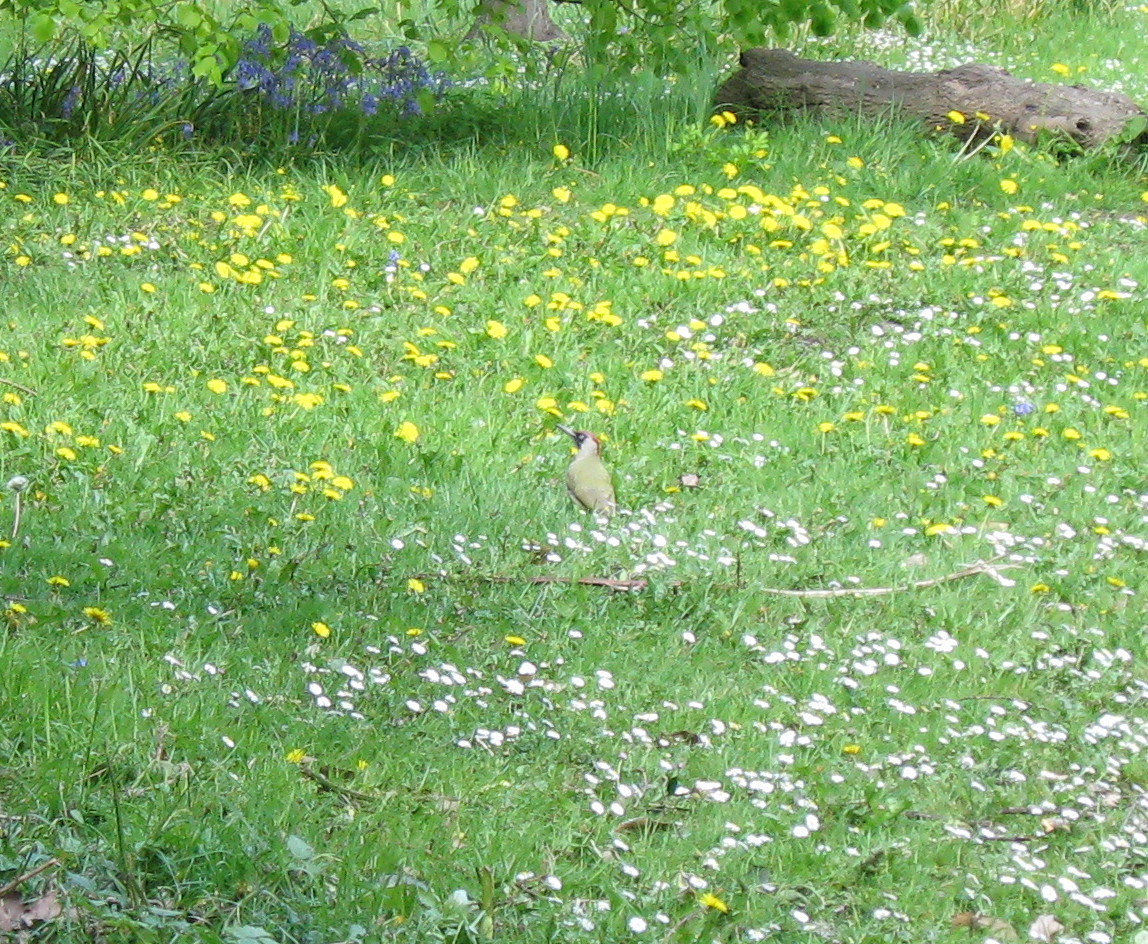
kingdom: Animalia
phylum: Chordata
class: Aves
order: Piciformes
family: Picidae
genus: Picus
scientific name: Picus viridis
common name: European green woodpecker
